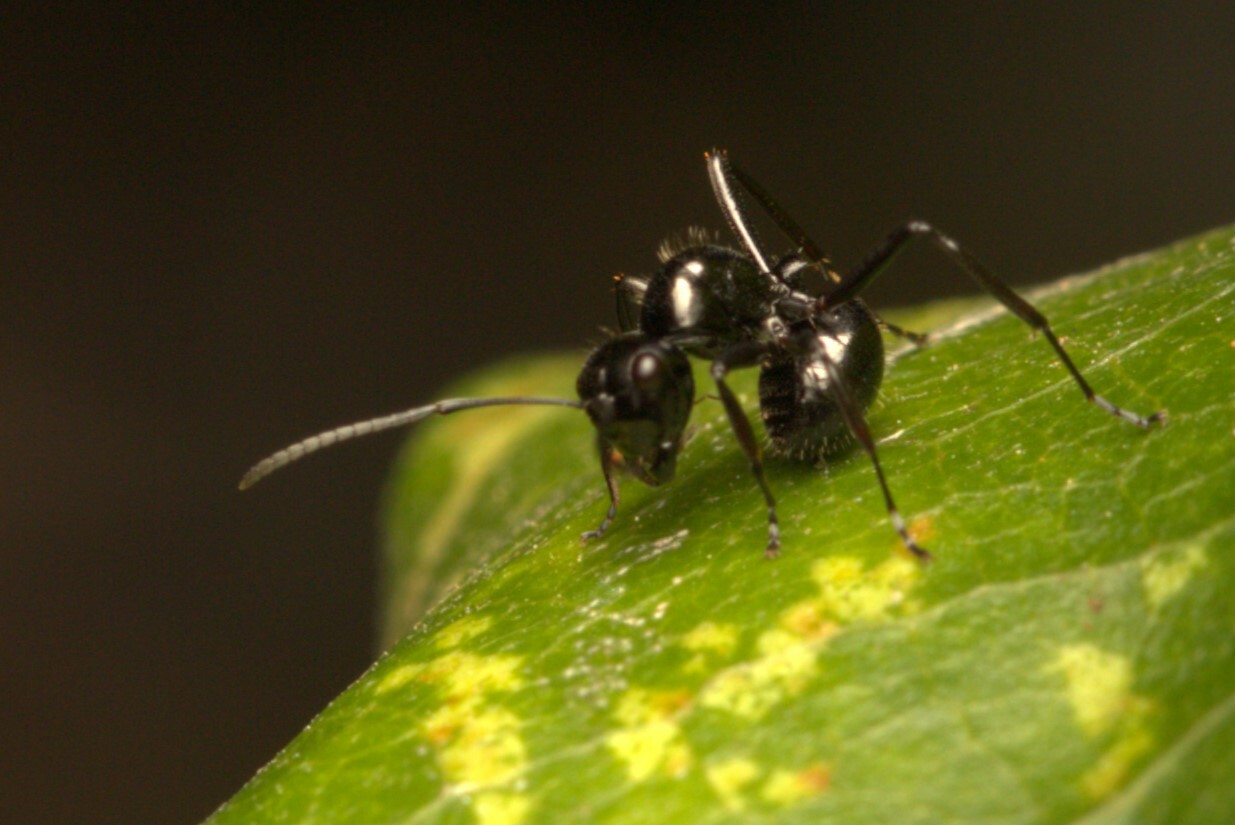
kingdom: Animalia
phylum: Arthropoda
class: Insecta
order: Hymenoptera
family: Formicidae
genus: Polyrhachis
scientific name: Polyrhachis pilosa
